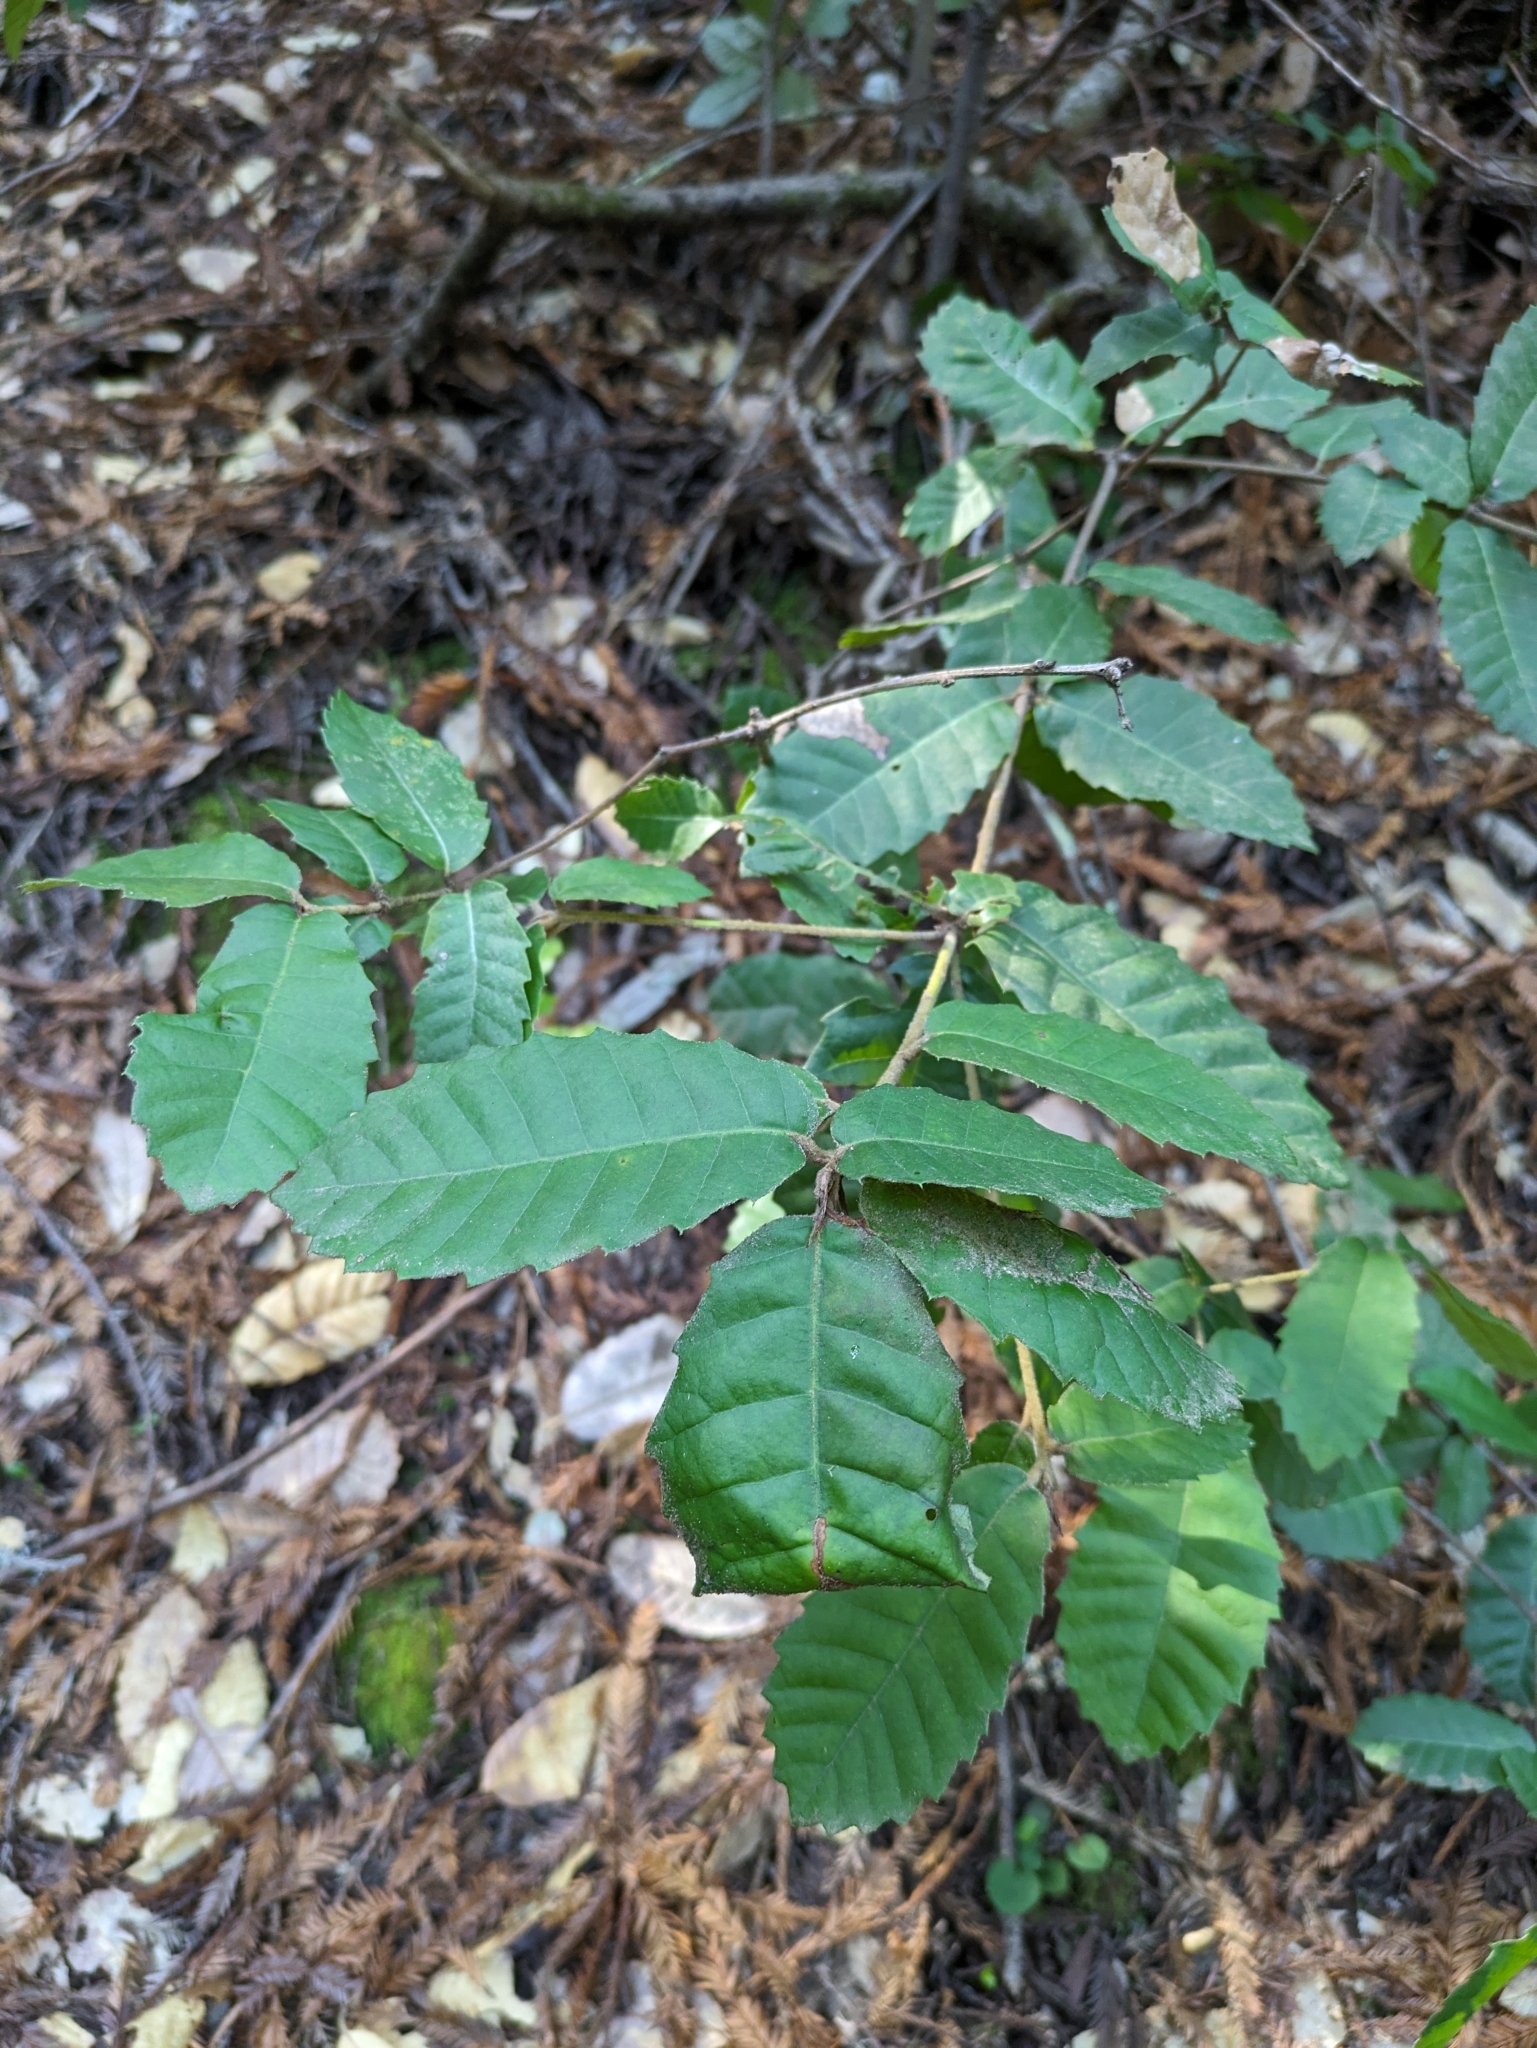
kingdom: Plantae
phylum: Tracheophyta
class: Magnoliopsida
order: Fagales
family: Fagaceae
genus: Notholithocarpus
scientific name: Notholithocarpus densiflorus
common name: Tan bark oak
